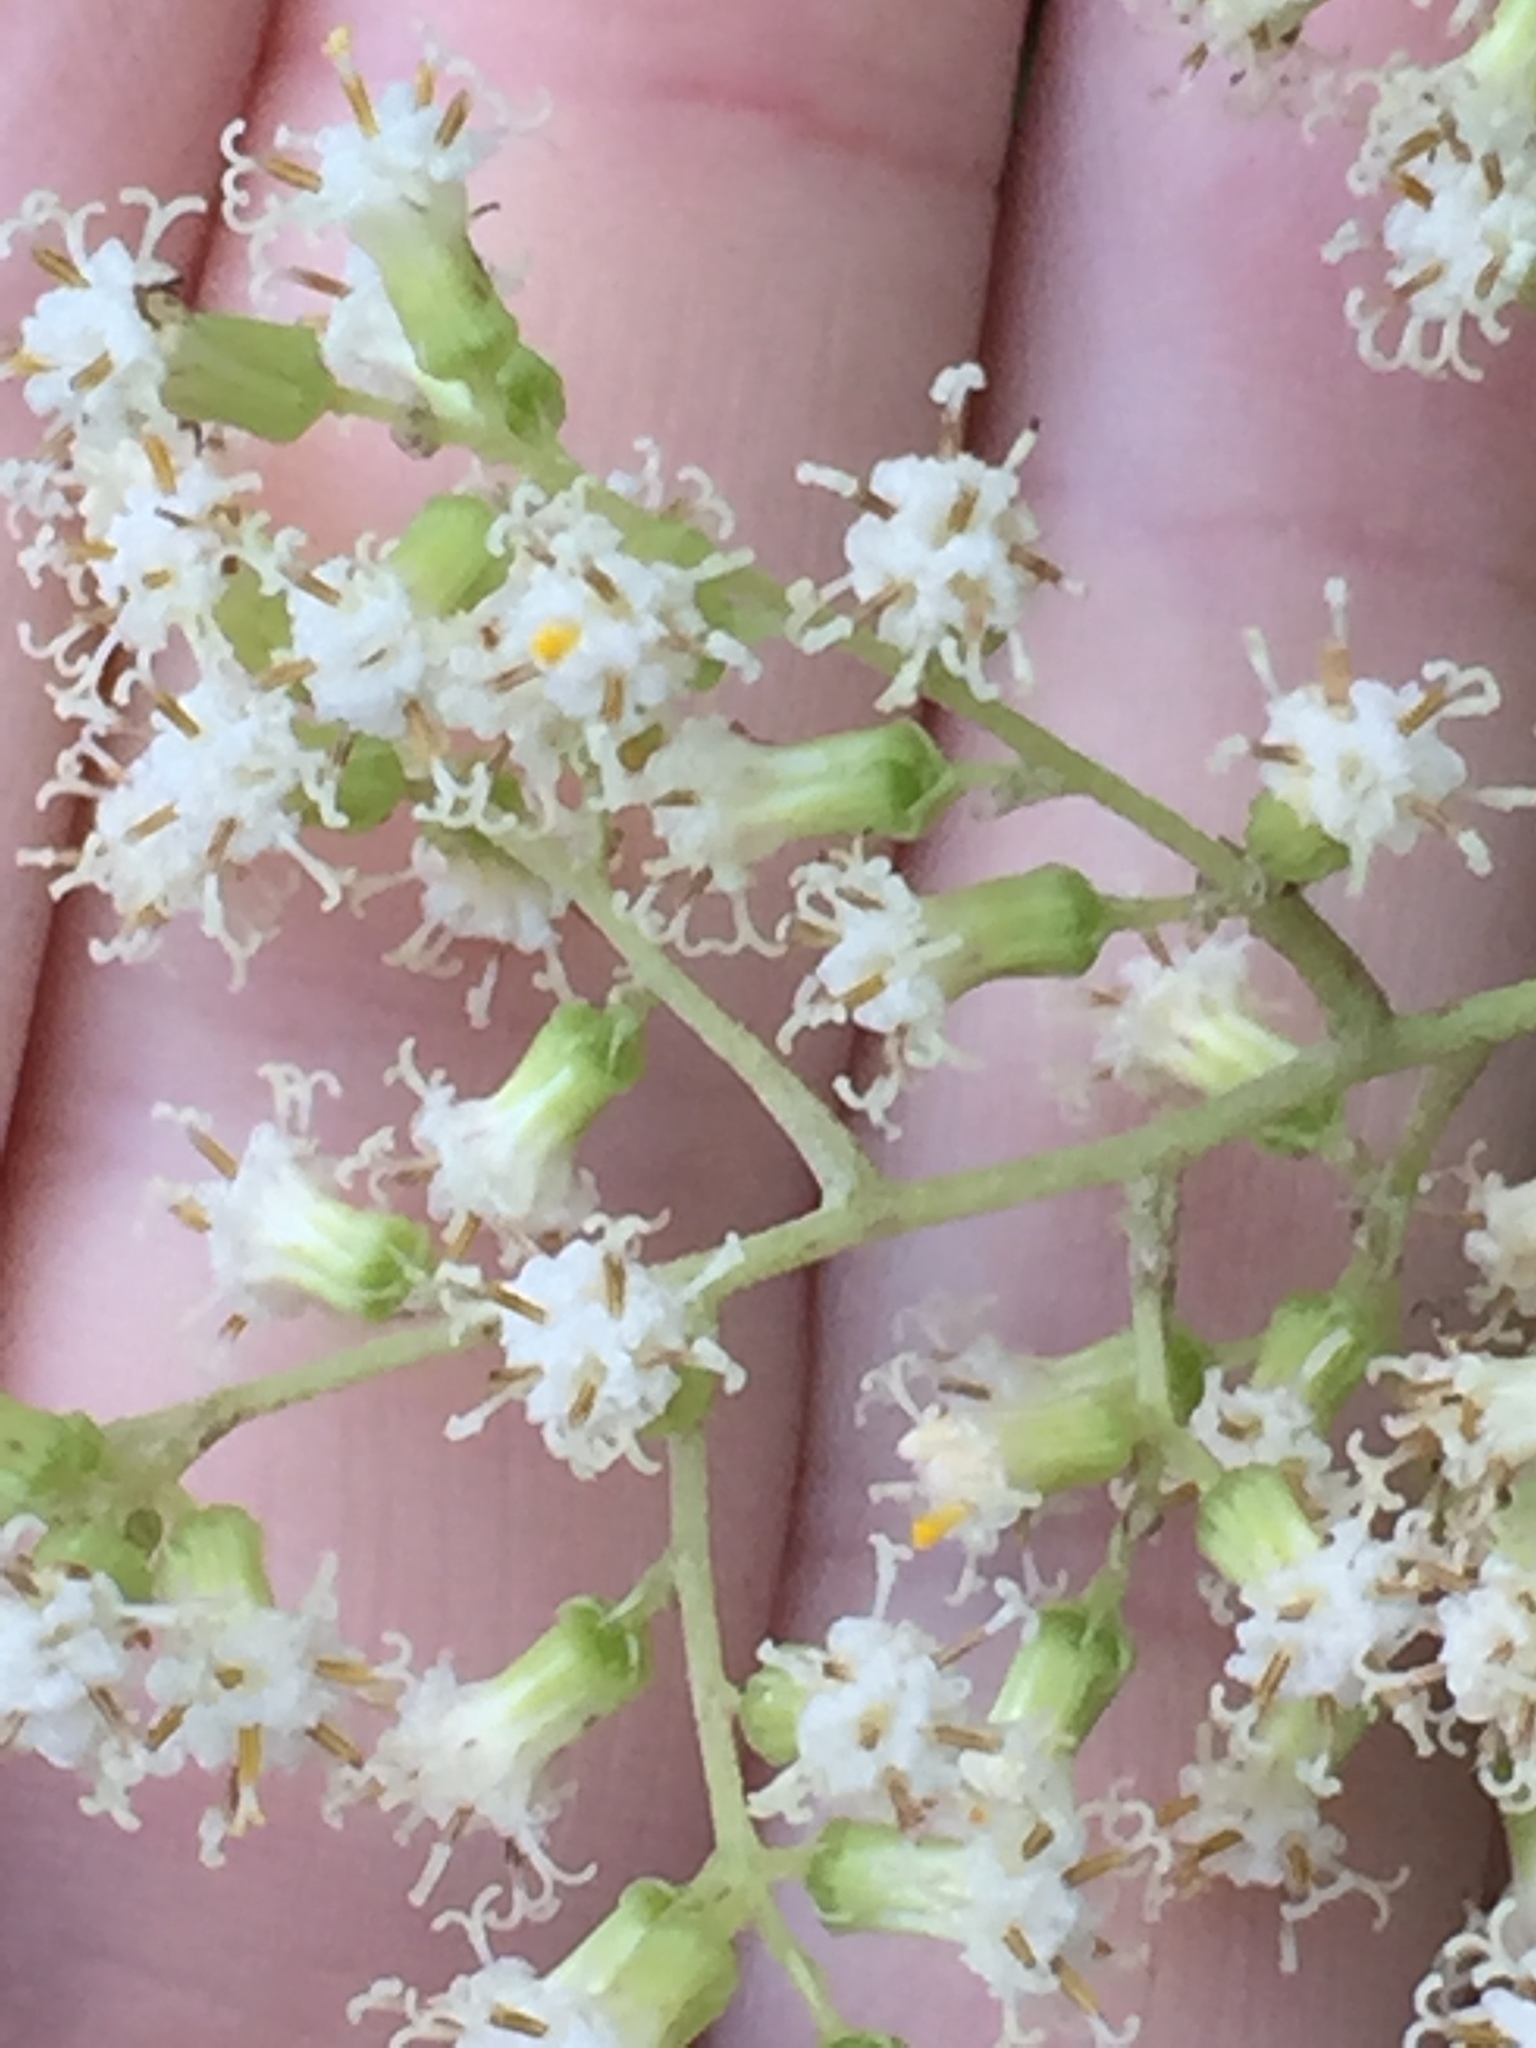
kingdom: Plantae
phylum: Tracheophyta
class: Magnoliopsida
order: Asterales
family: Asteraceae
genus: Brachyglottis
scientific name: Brachyglottis repanda
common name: Hedge ragwort
